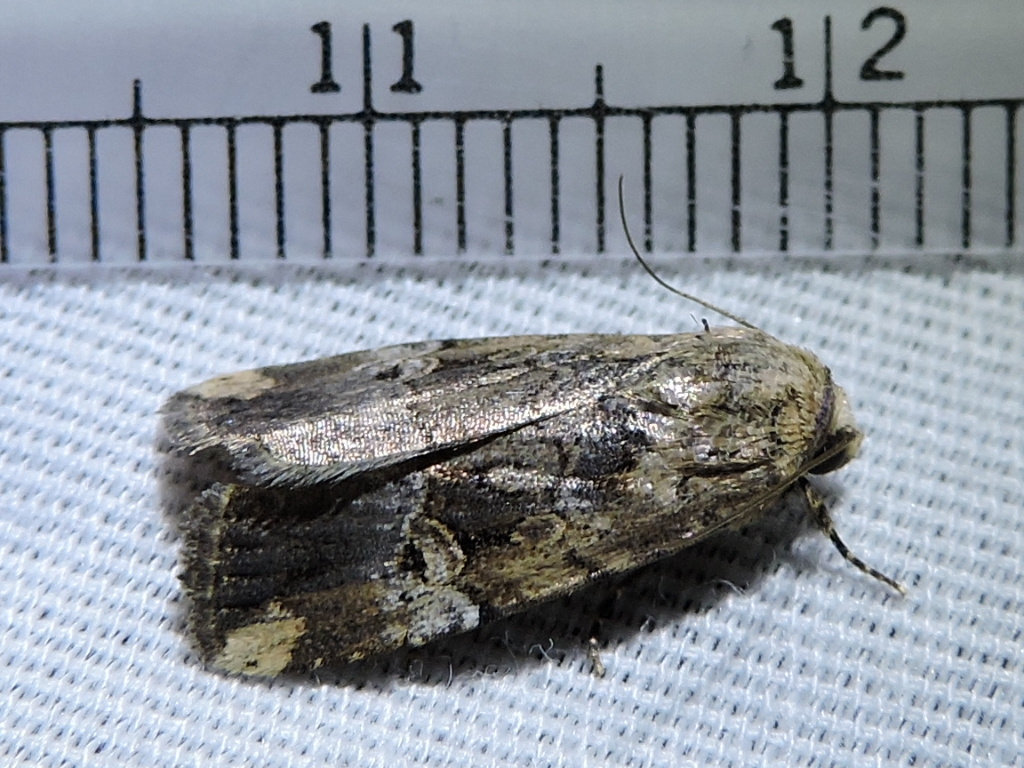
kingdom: Animalia
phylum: Arthropoda
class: Insecta
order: Lepidoptera
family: Noctuidae
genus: Elaphria
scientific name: Elaphria chalcedonia
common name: Chalcedony midget
